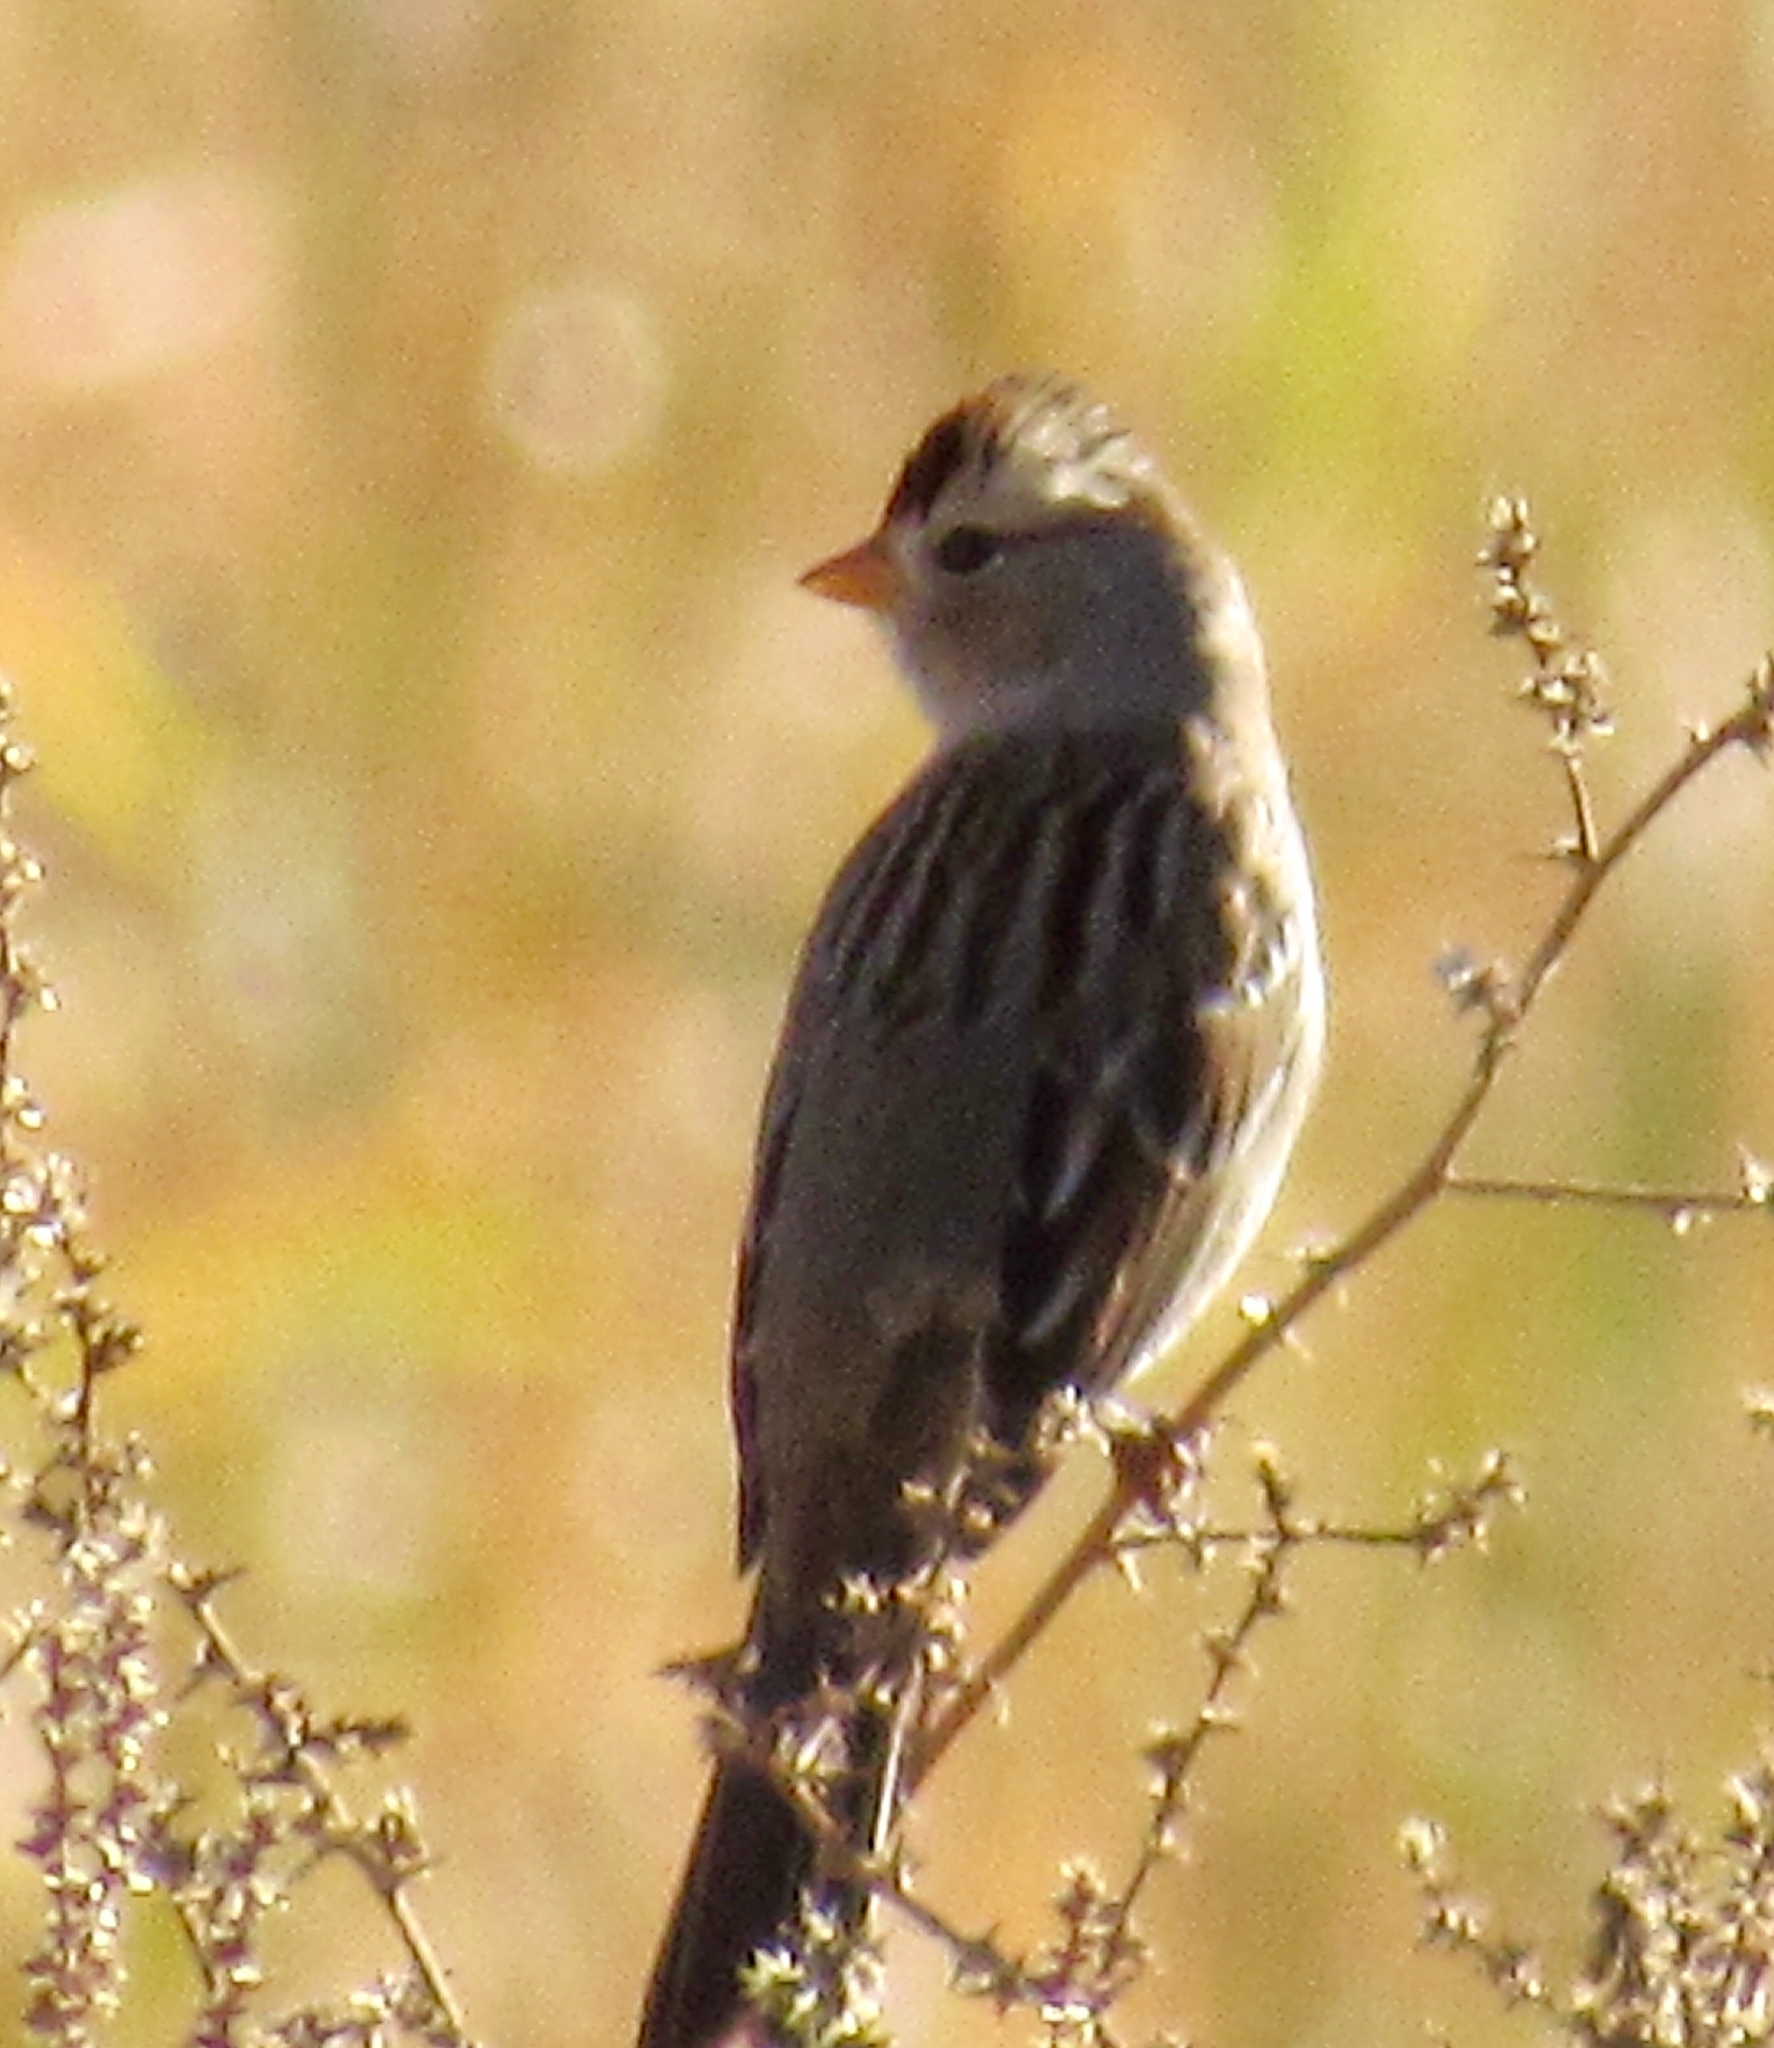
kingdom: Animalia
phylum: Chordata
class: Aves
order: Passeriformes
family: Passerellidae
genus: Zonotrichia
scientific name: Zonotrichia leucophrys
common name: White-crowned sparrow
